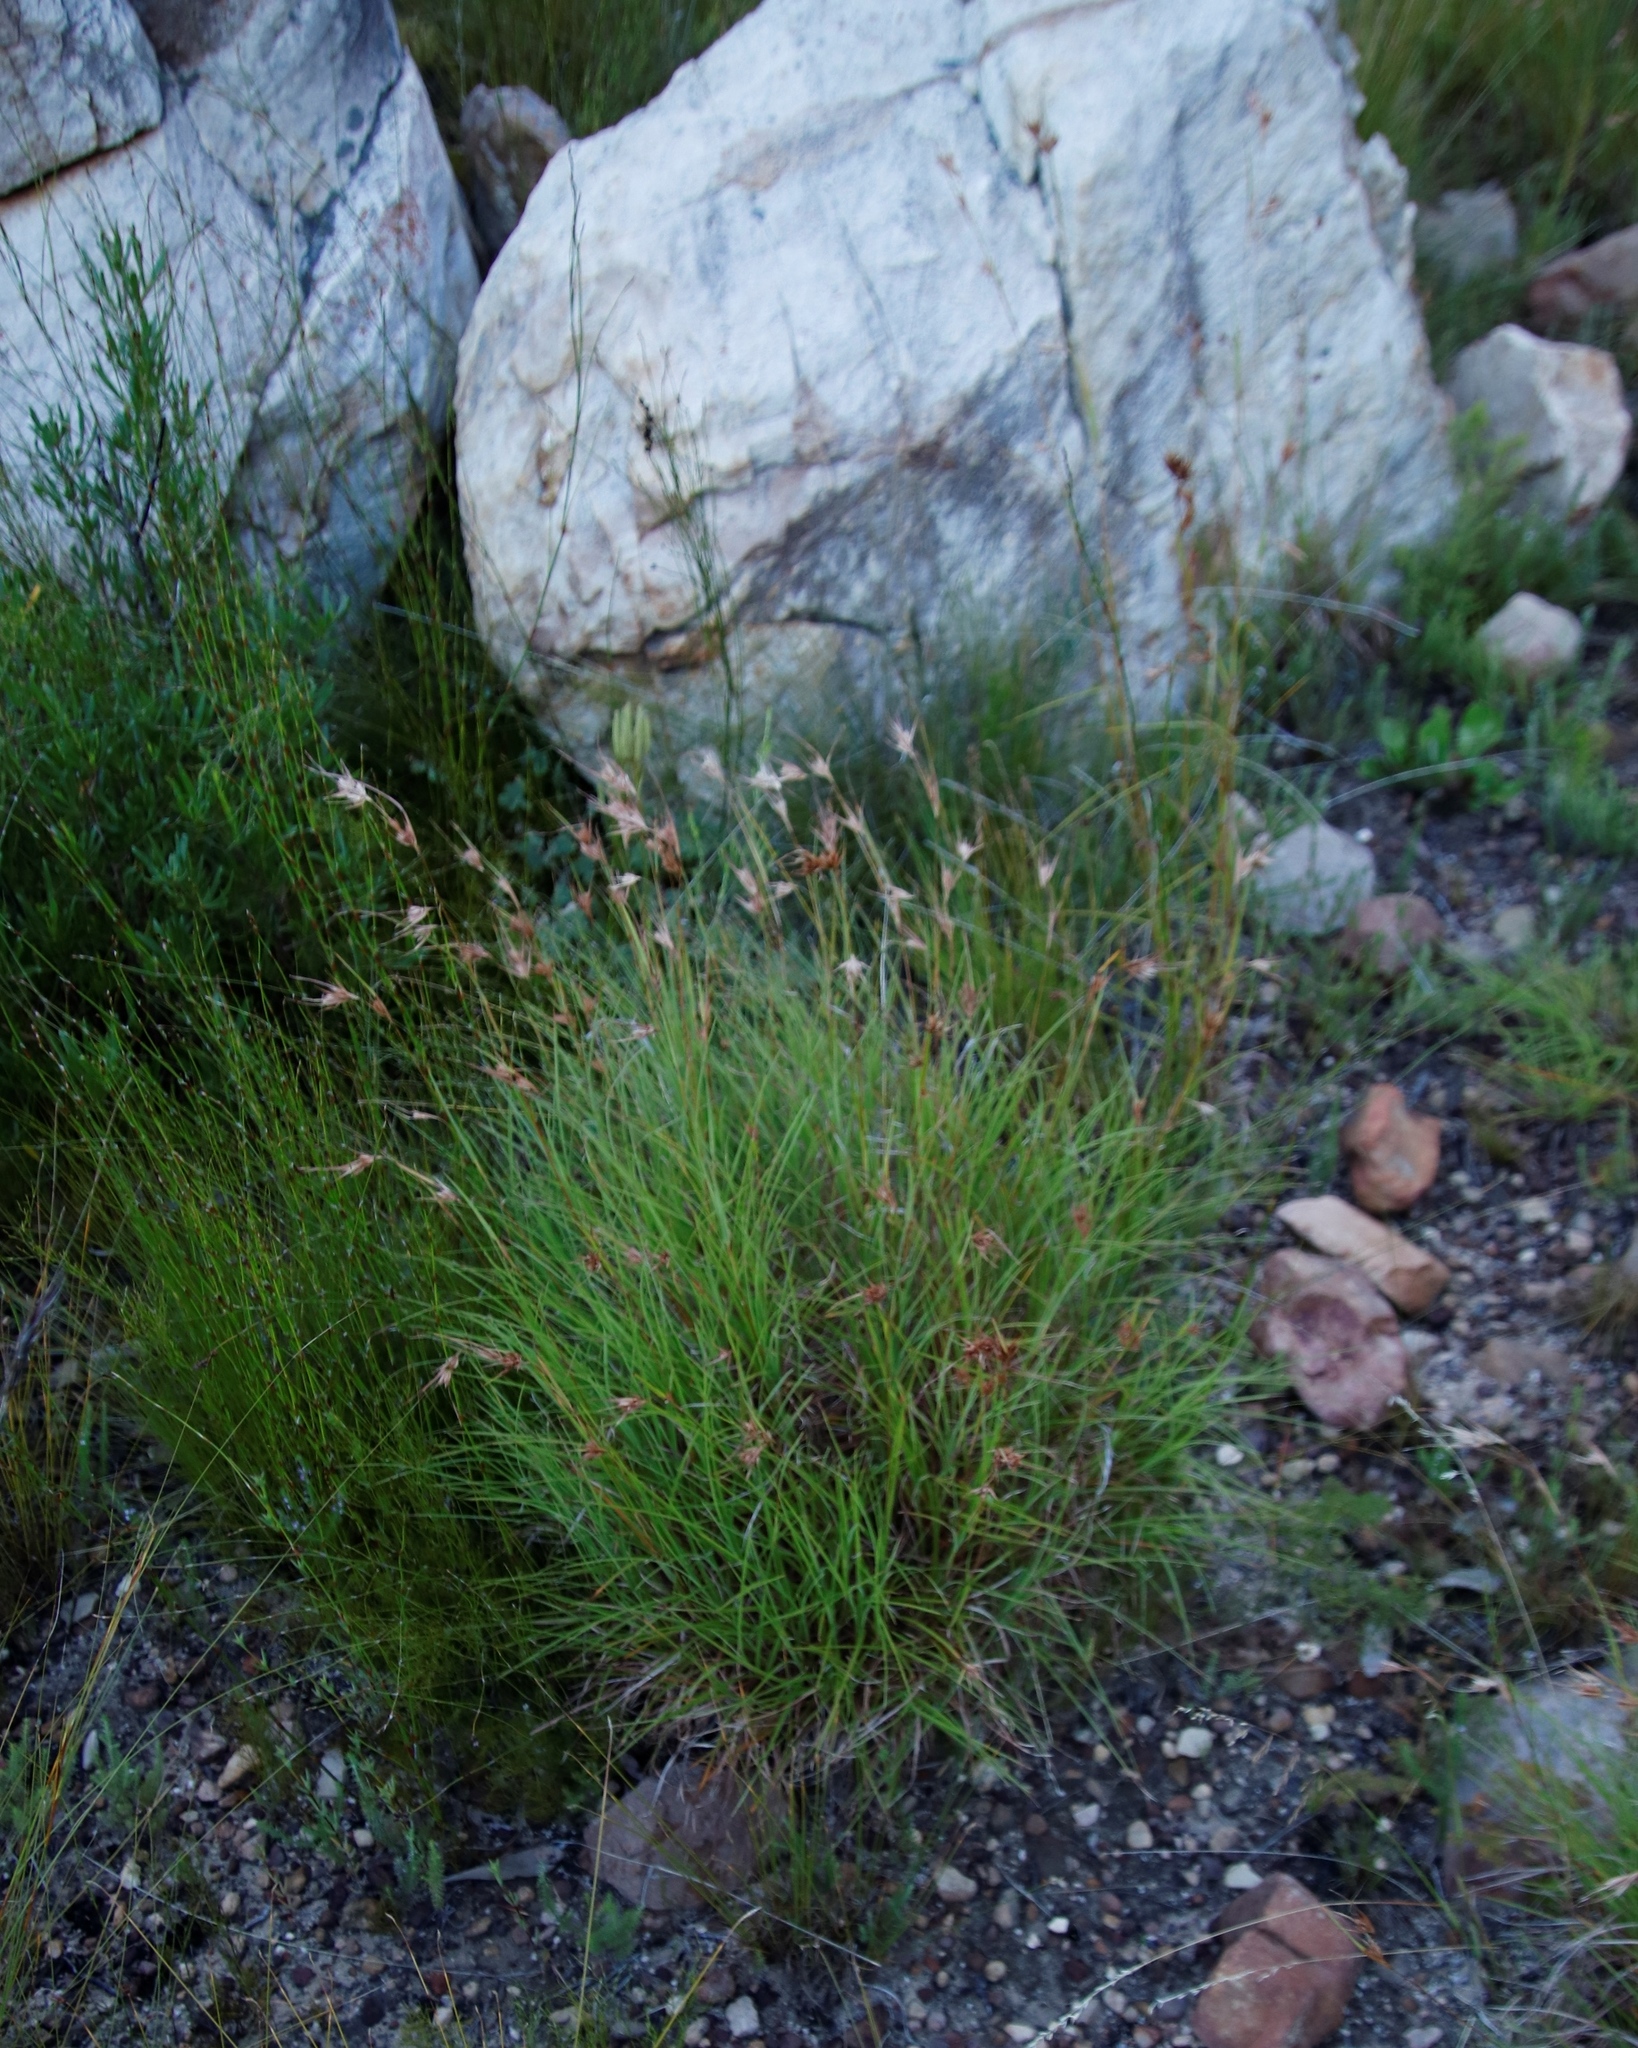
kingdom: Plantae
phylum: Tracheophyta
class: Liliopsida
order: Poales
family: Poaceae
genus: Themeda
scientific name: Themeda triandra
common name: Kangaroo grass
